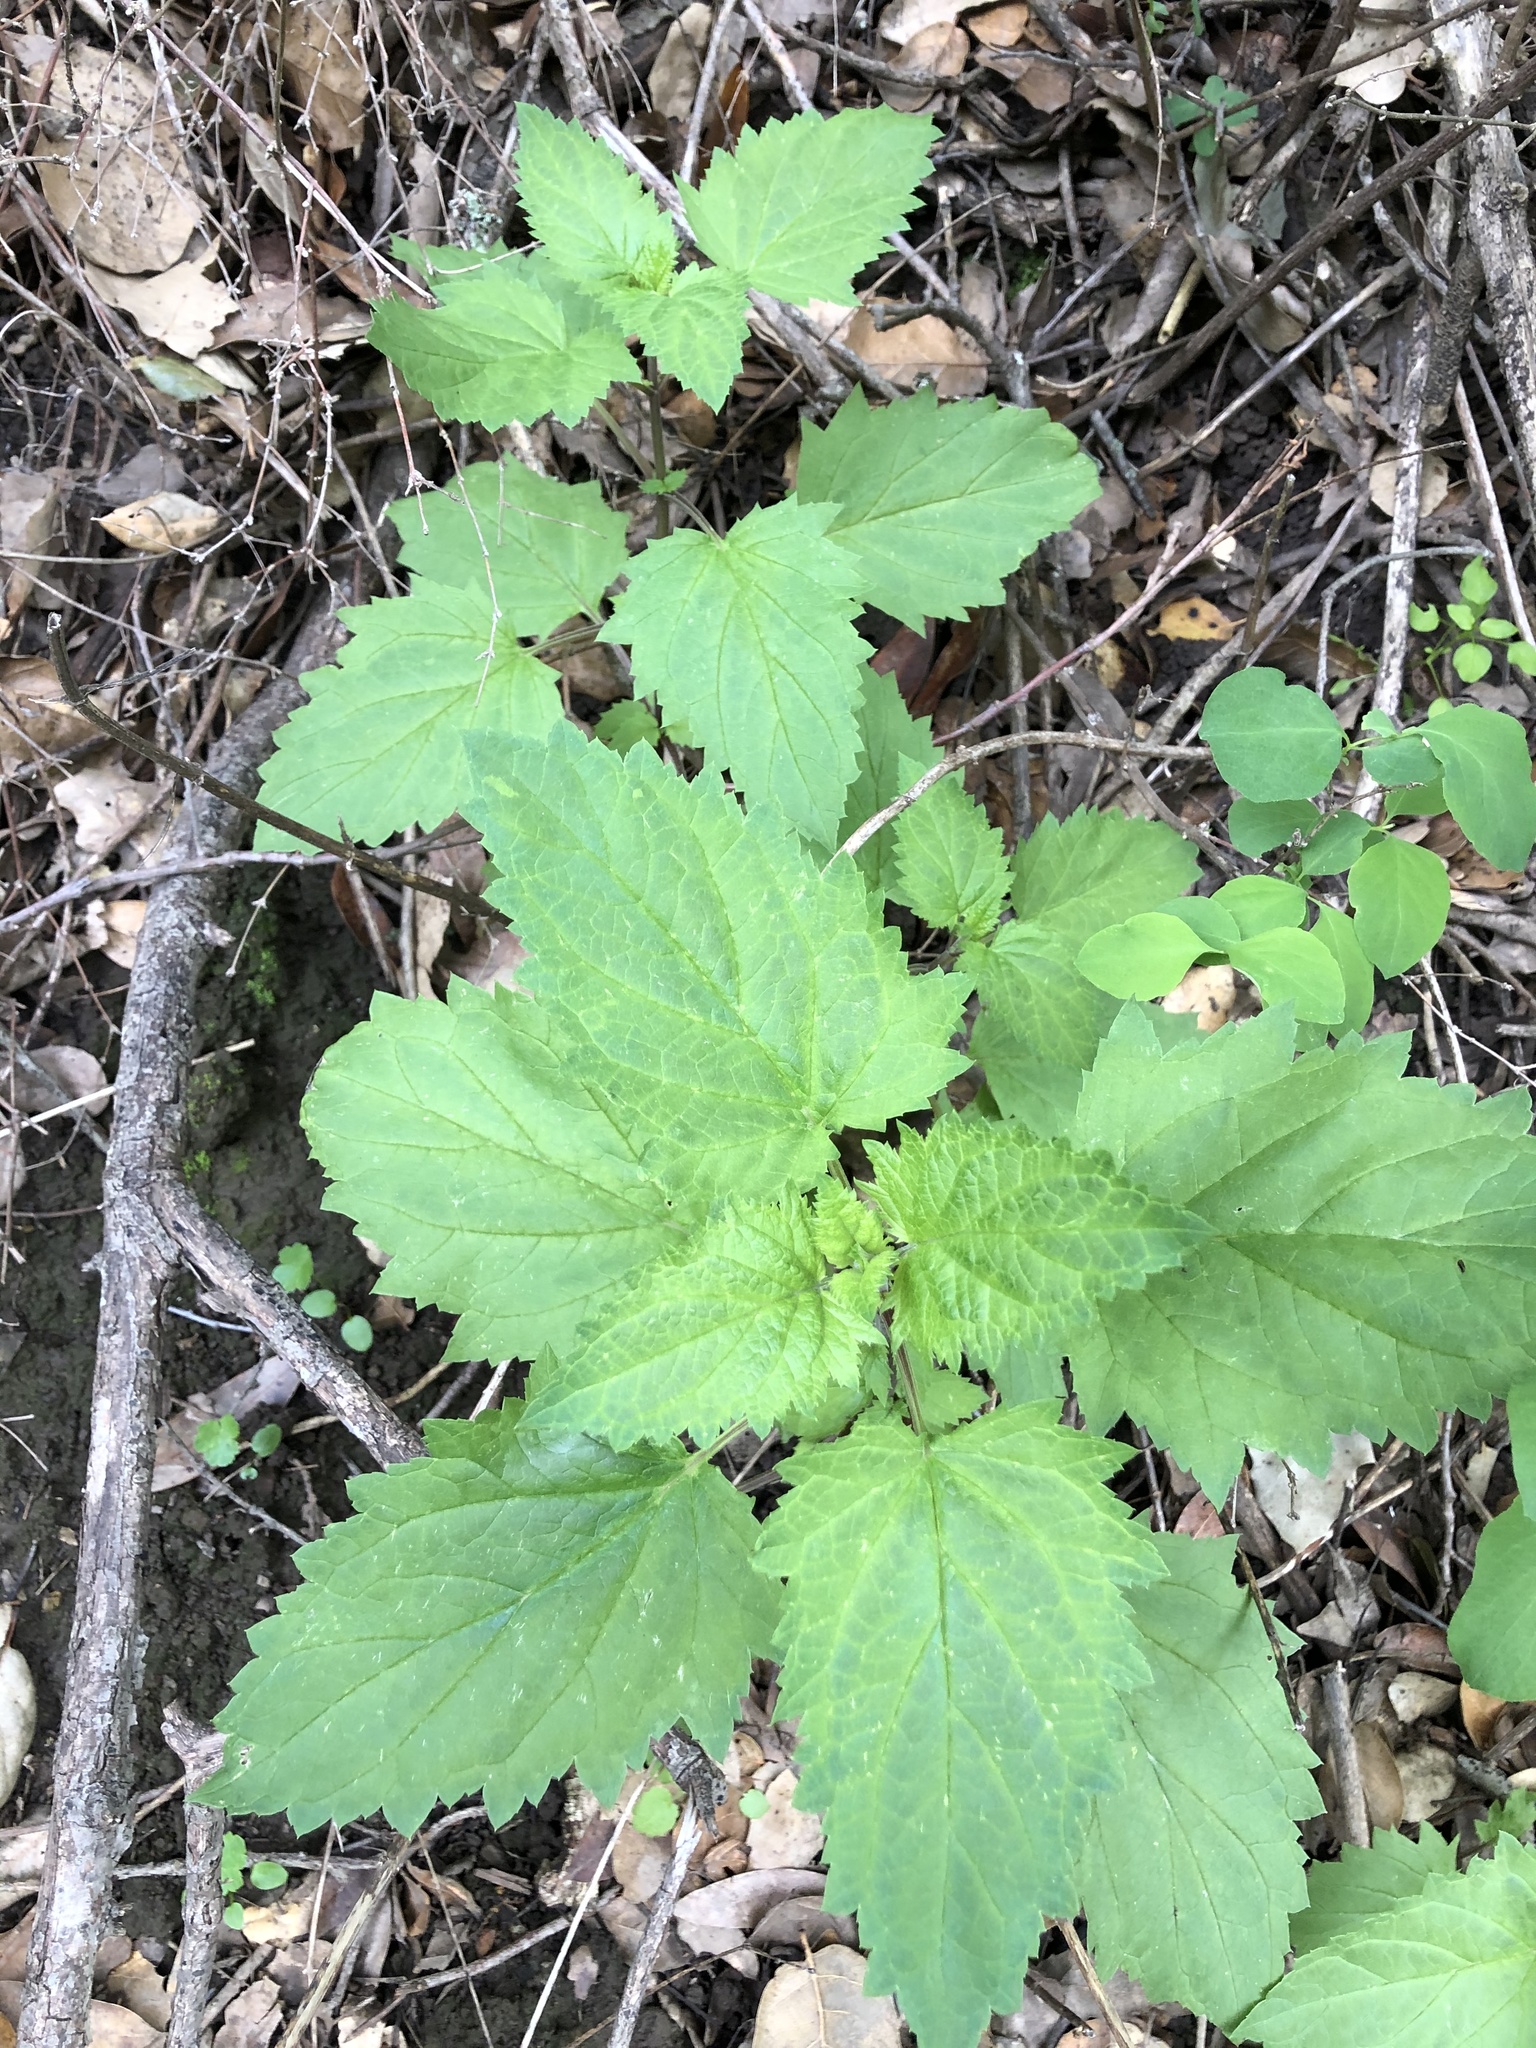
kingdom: Plantae
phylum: Tracheophyta
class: Magnoliopsida
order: Lamiales
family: Scrophulariaceae
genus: Scrophularia
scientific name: Scrophularia californica
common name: California figwort
